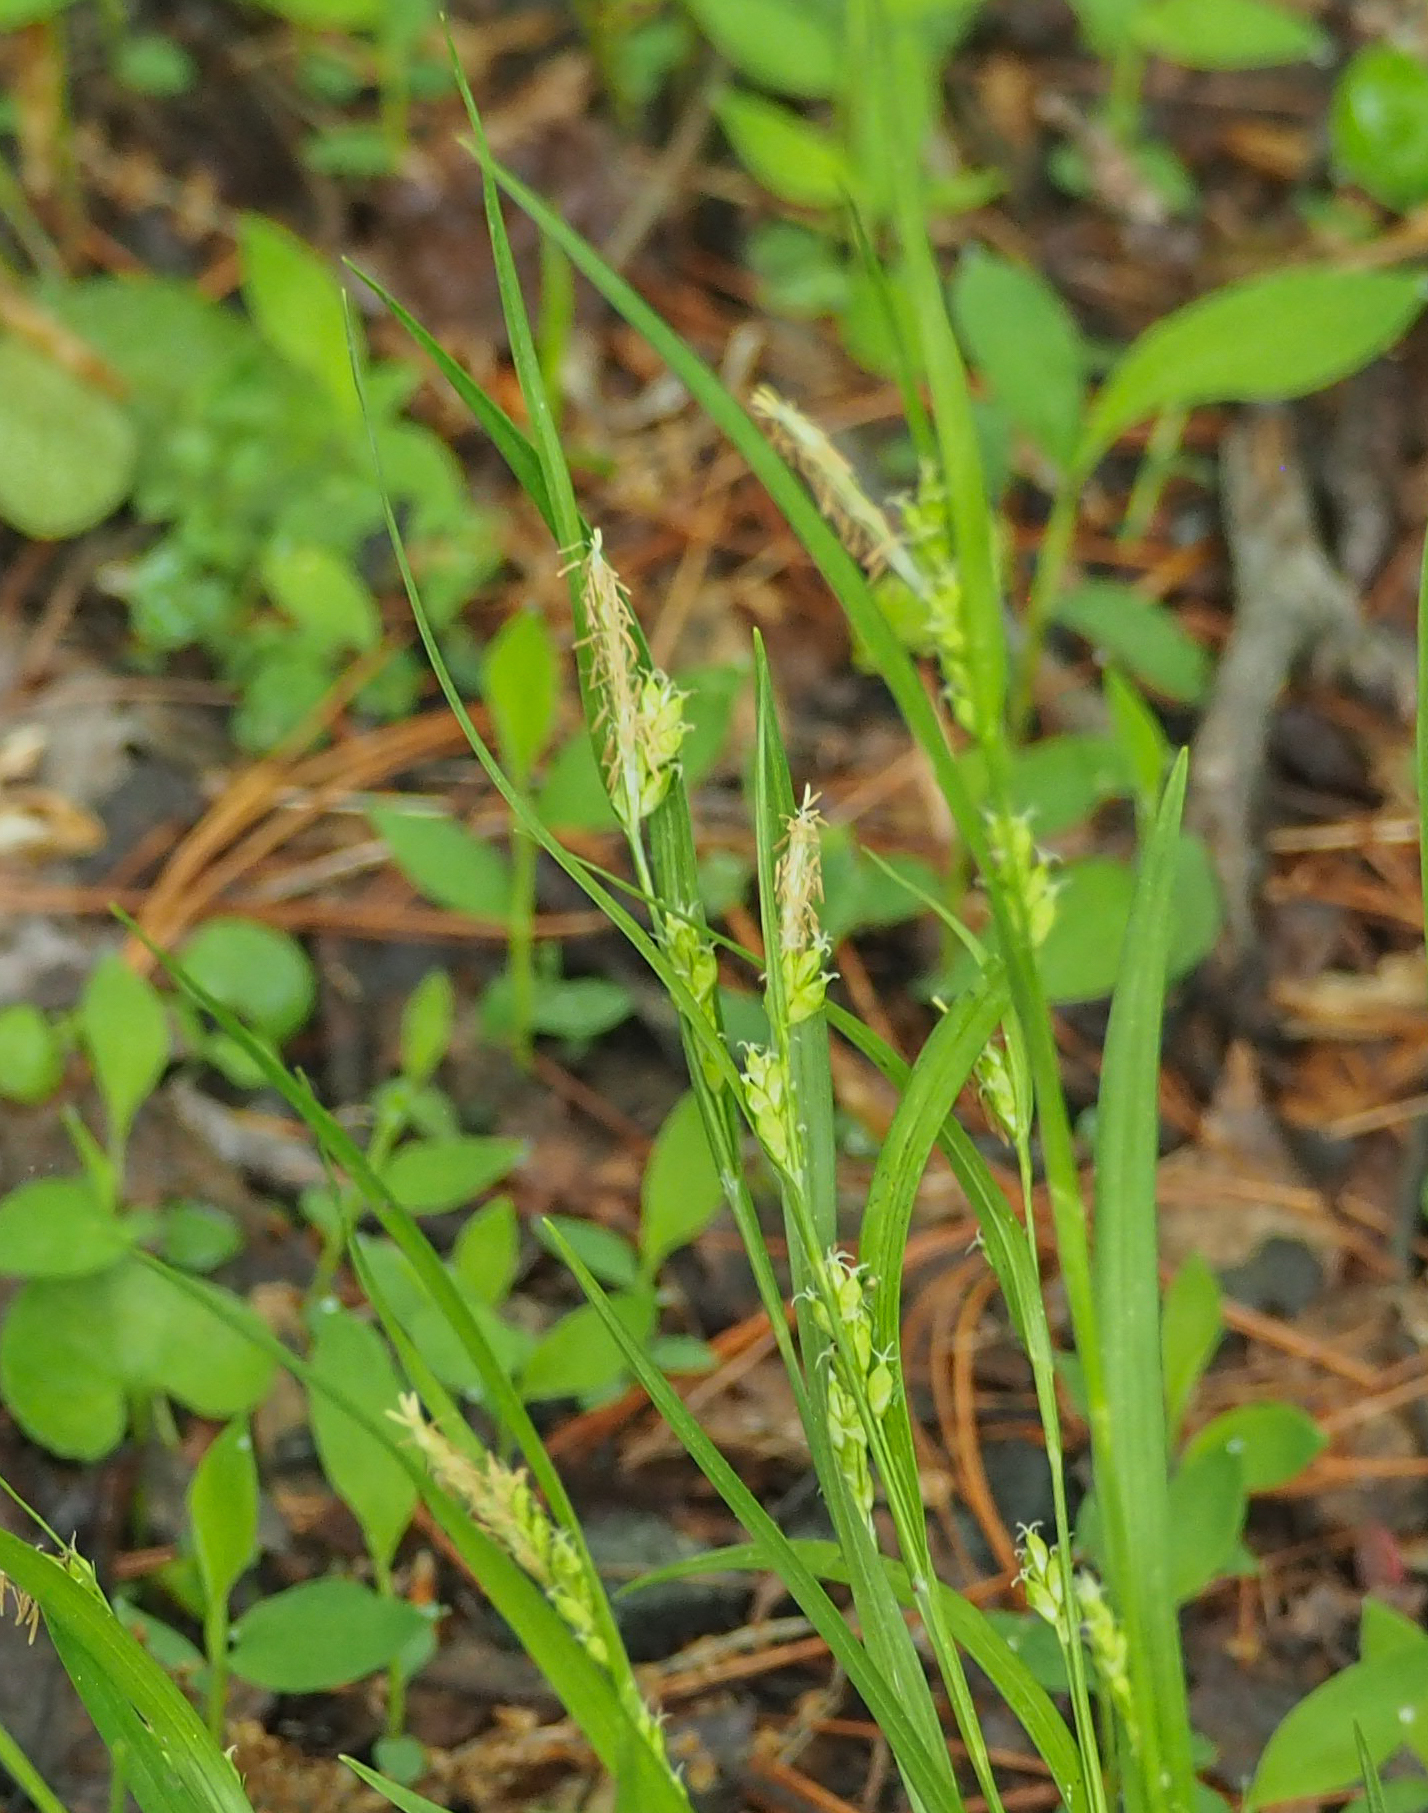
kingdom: Plantae
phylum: Tracheophyta
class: Liliopsida
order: Poales
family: Cyperaceae
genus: Carex
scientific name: Carex amphibola
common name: Amphibious sedge
